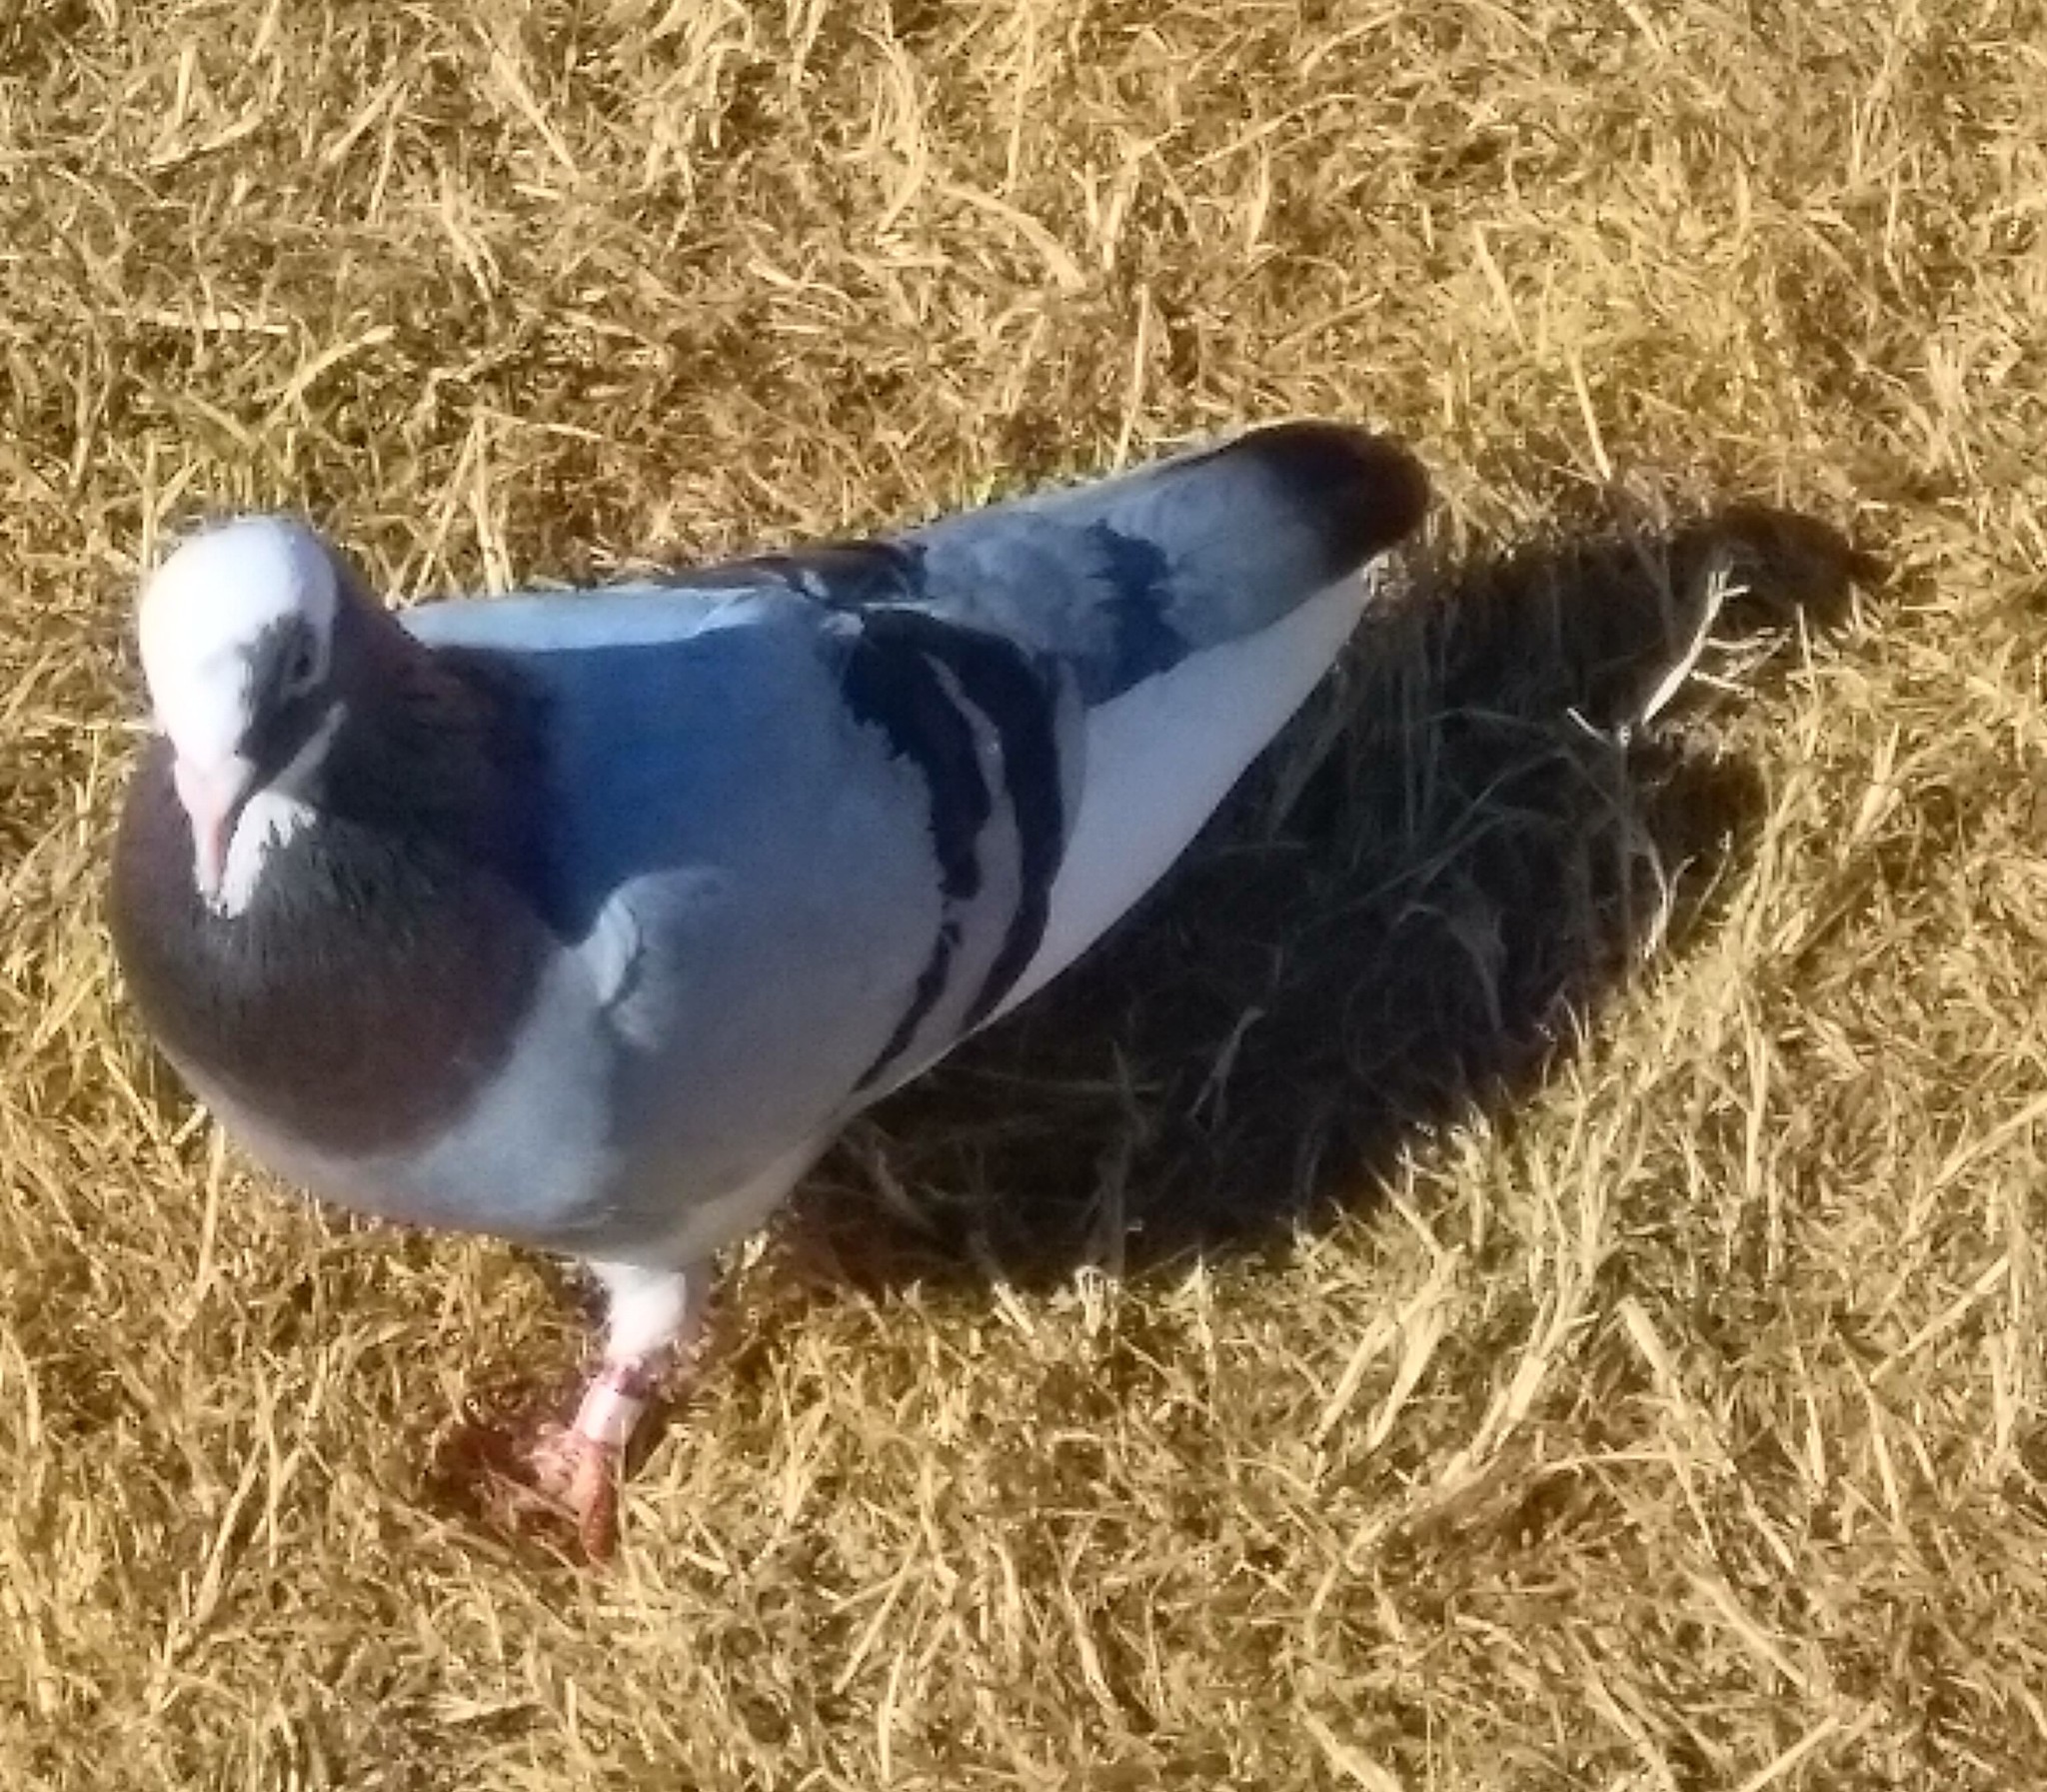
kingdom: Animalia
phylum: Chordata
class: Aves
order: Columbiformes
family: Columbidae
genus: Columba
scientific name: Columba livia
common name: Rock pigeon
